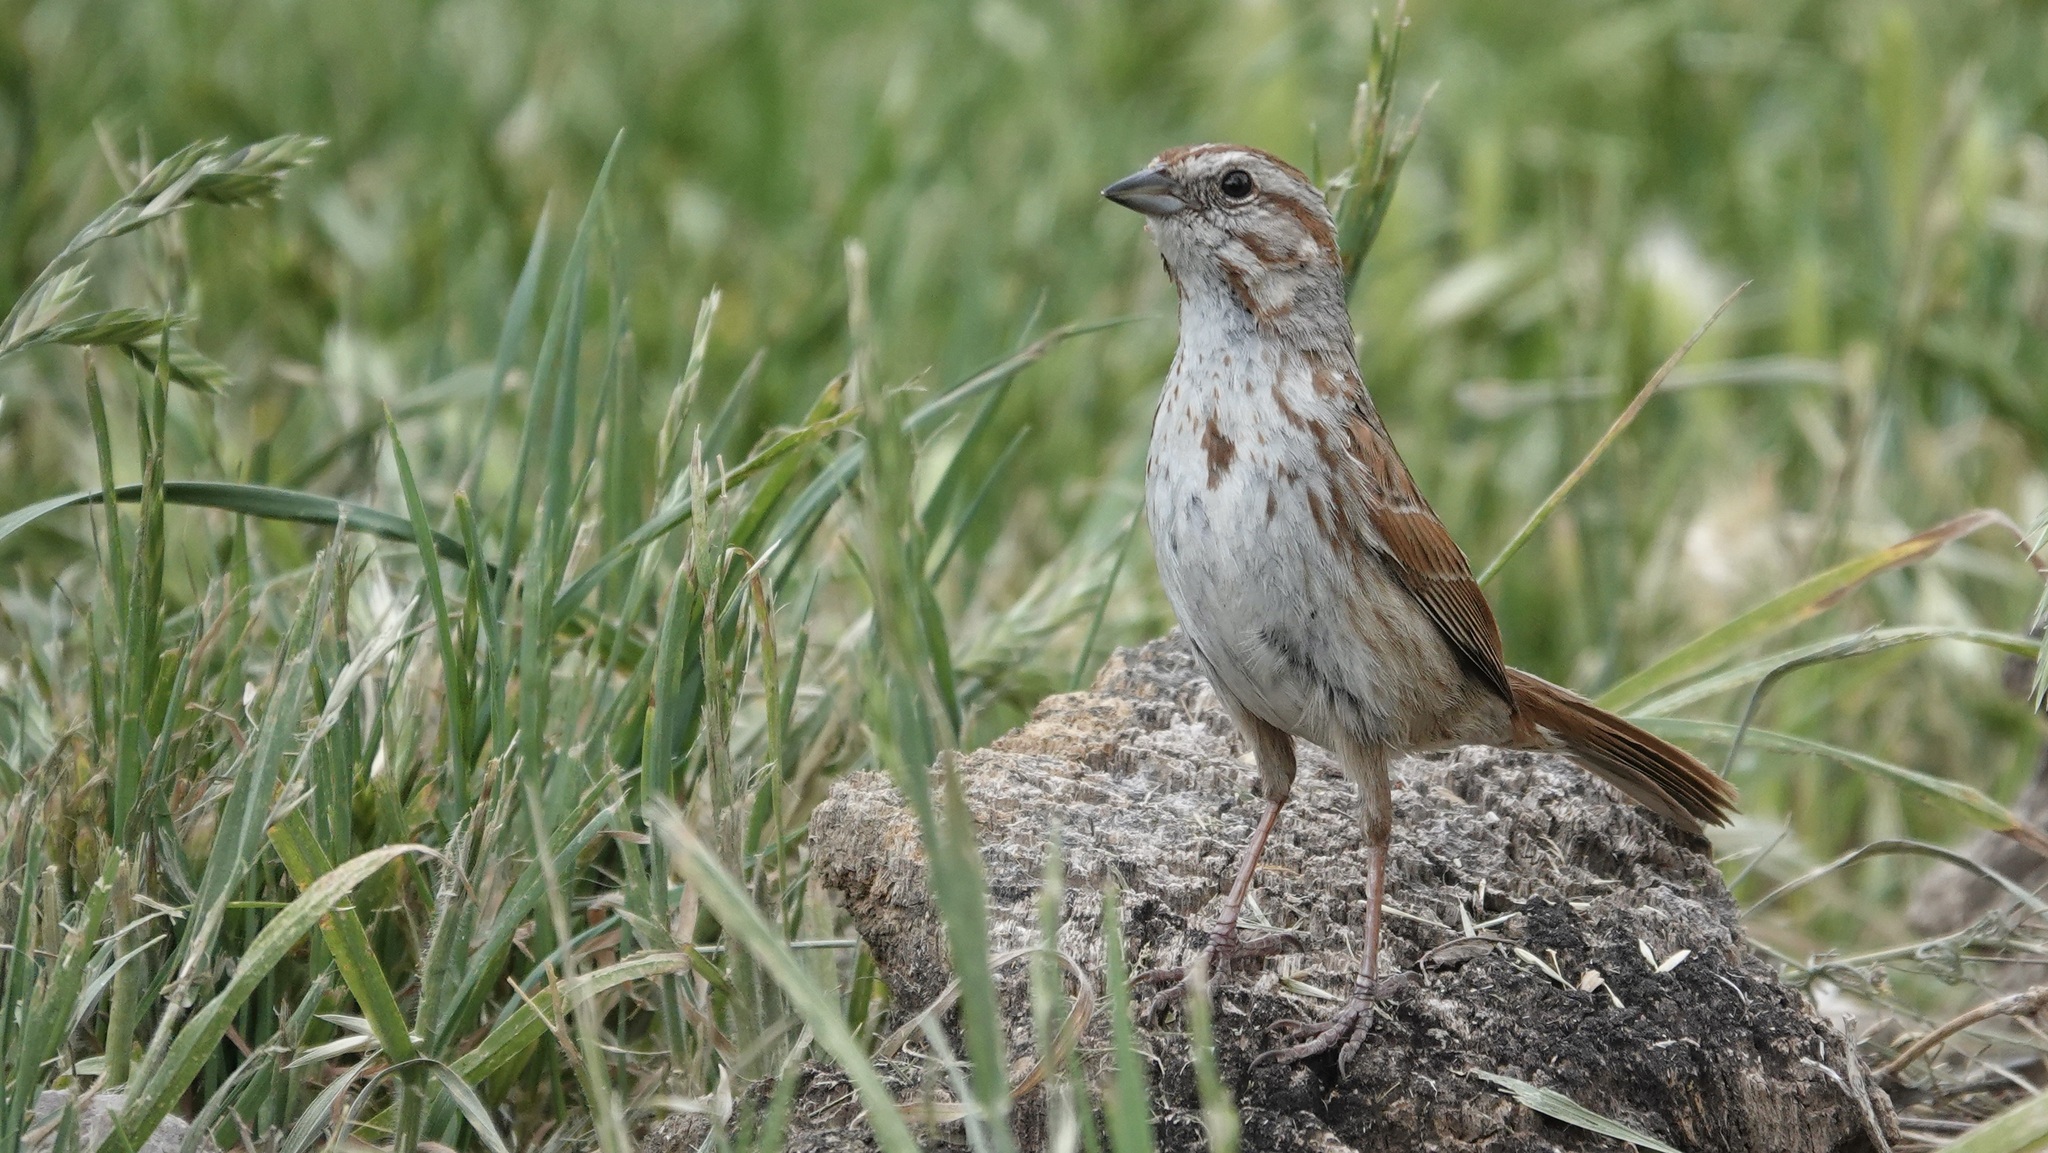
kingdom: Animalia
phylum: Chordata
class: Aves
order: Passeriformes
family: Passerellidae
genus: Melospiza
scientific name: Melospiza melodia
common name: Song sparrow
